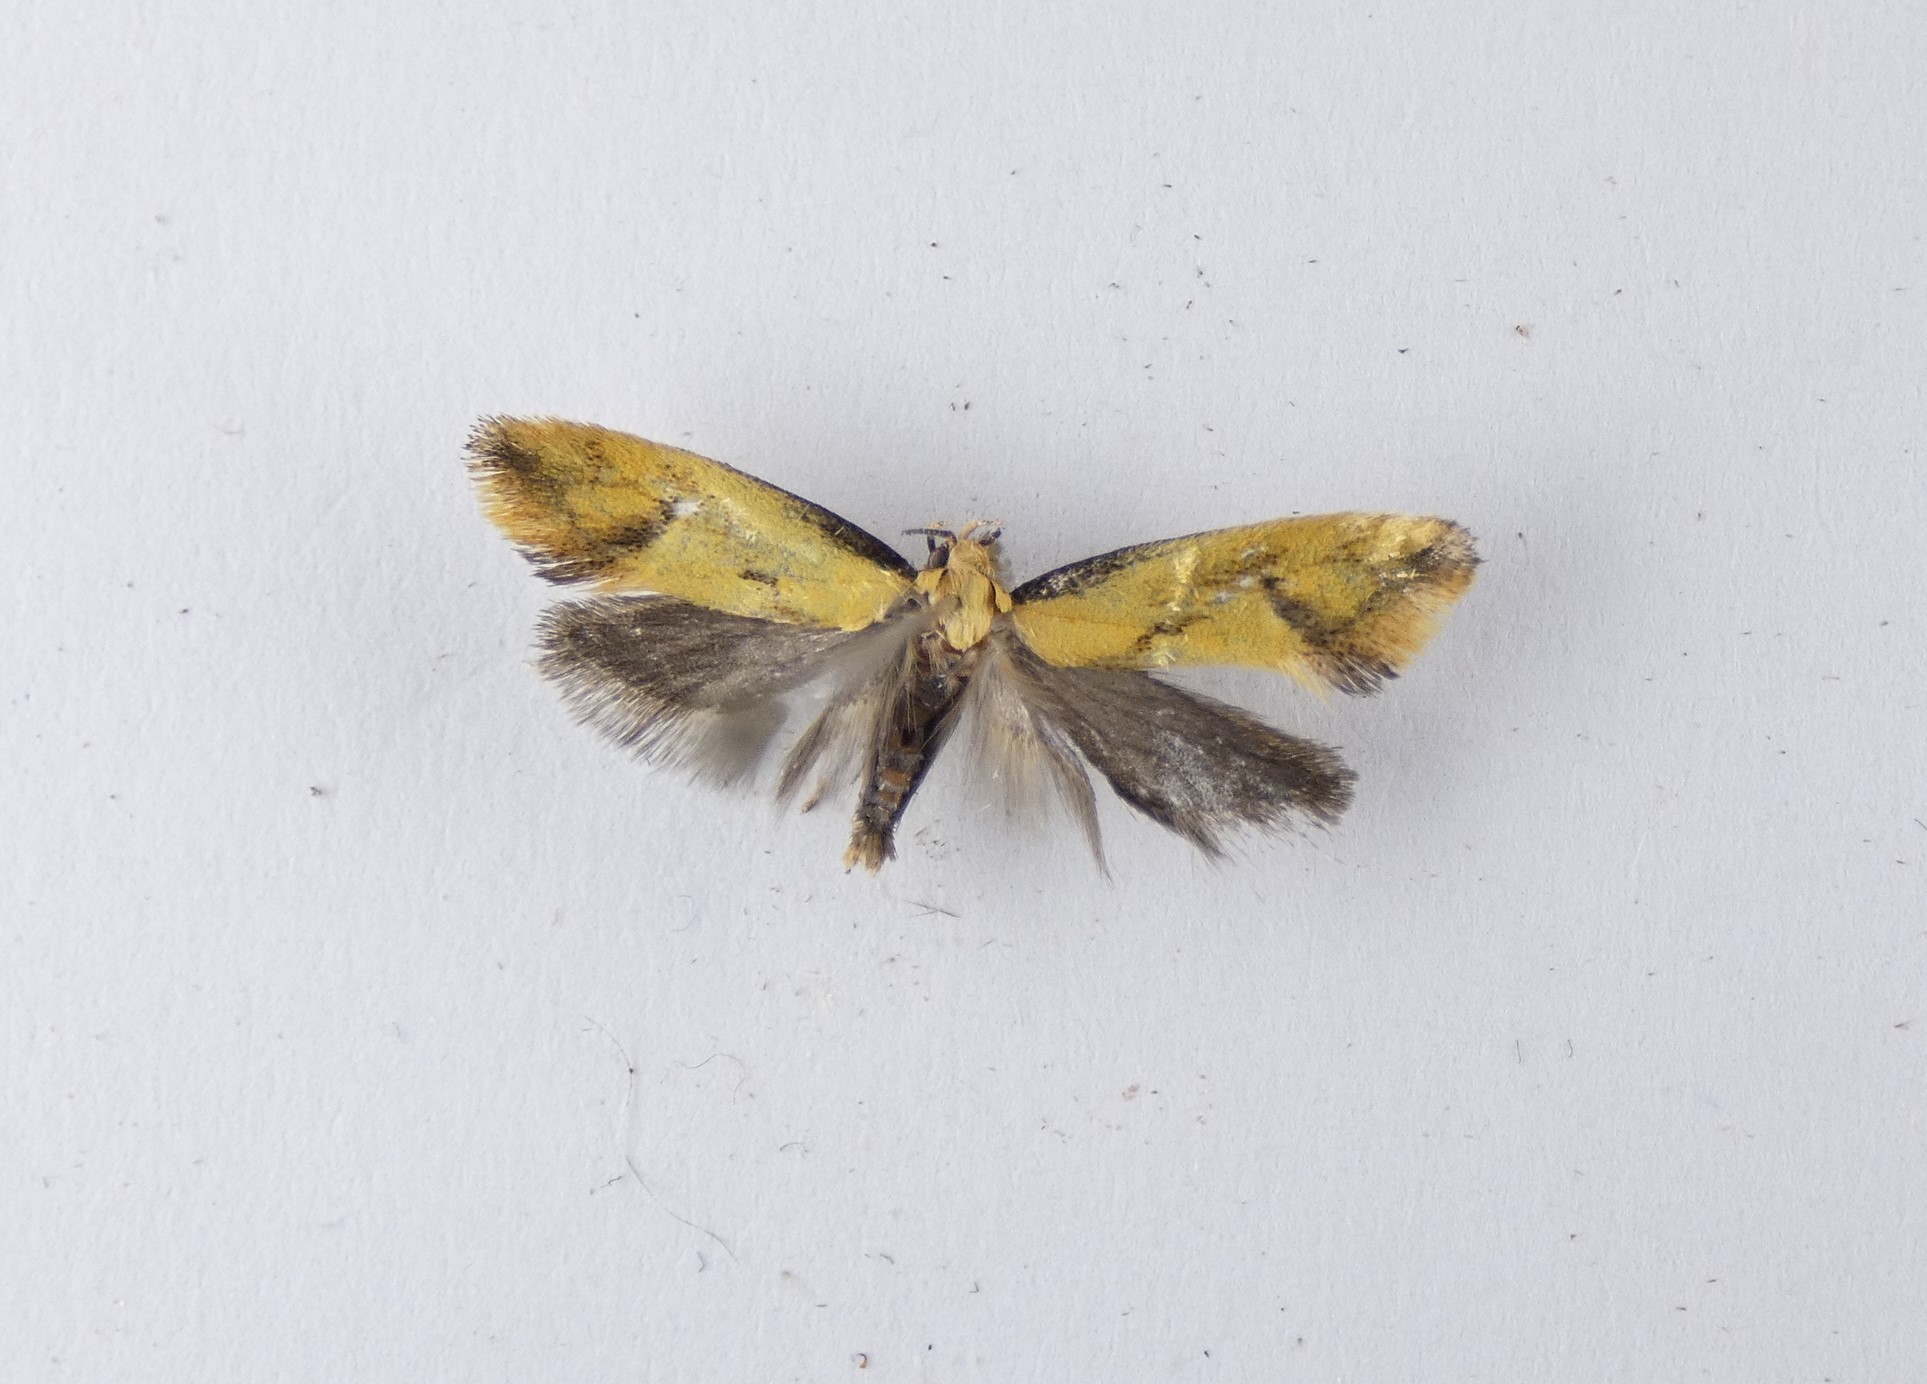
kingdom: Animalia
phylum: Arthropoda
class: Insecta
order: Lepidoptera
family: Oecophoridae
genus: Tingena
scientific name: Tingena actinias
